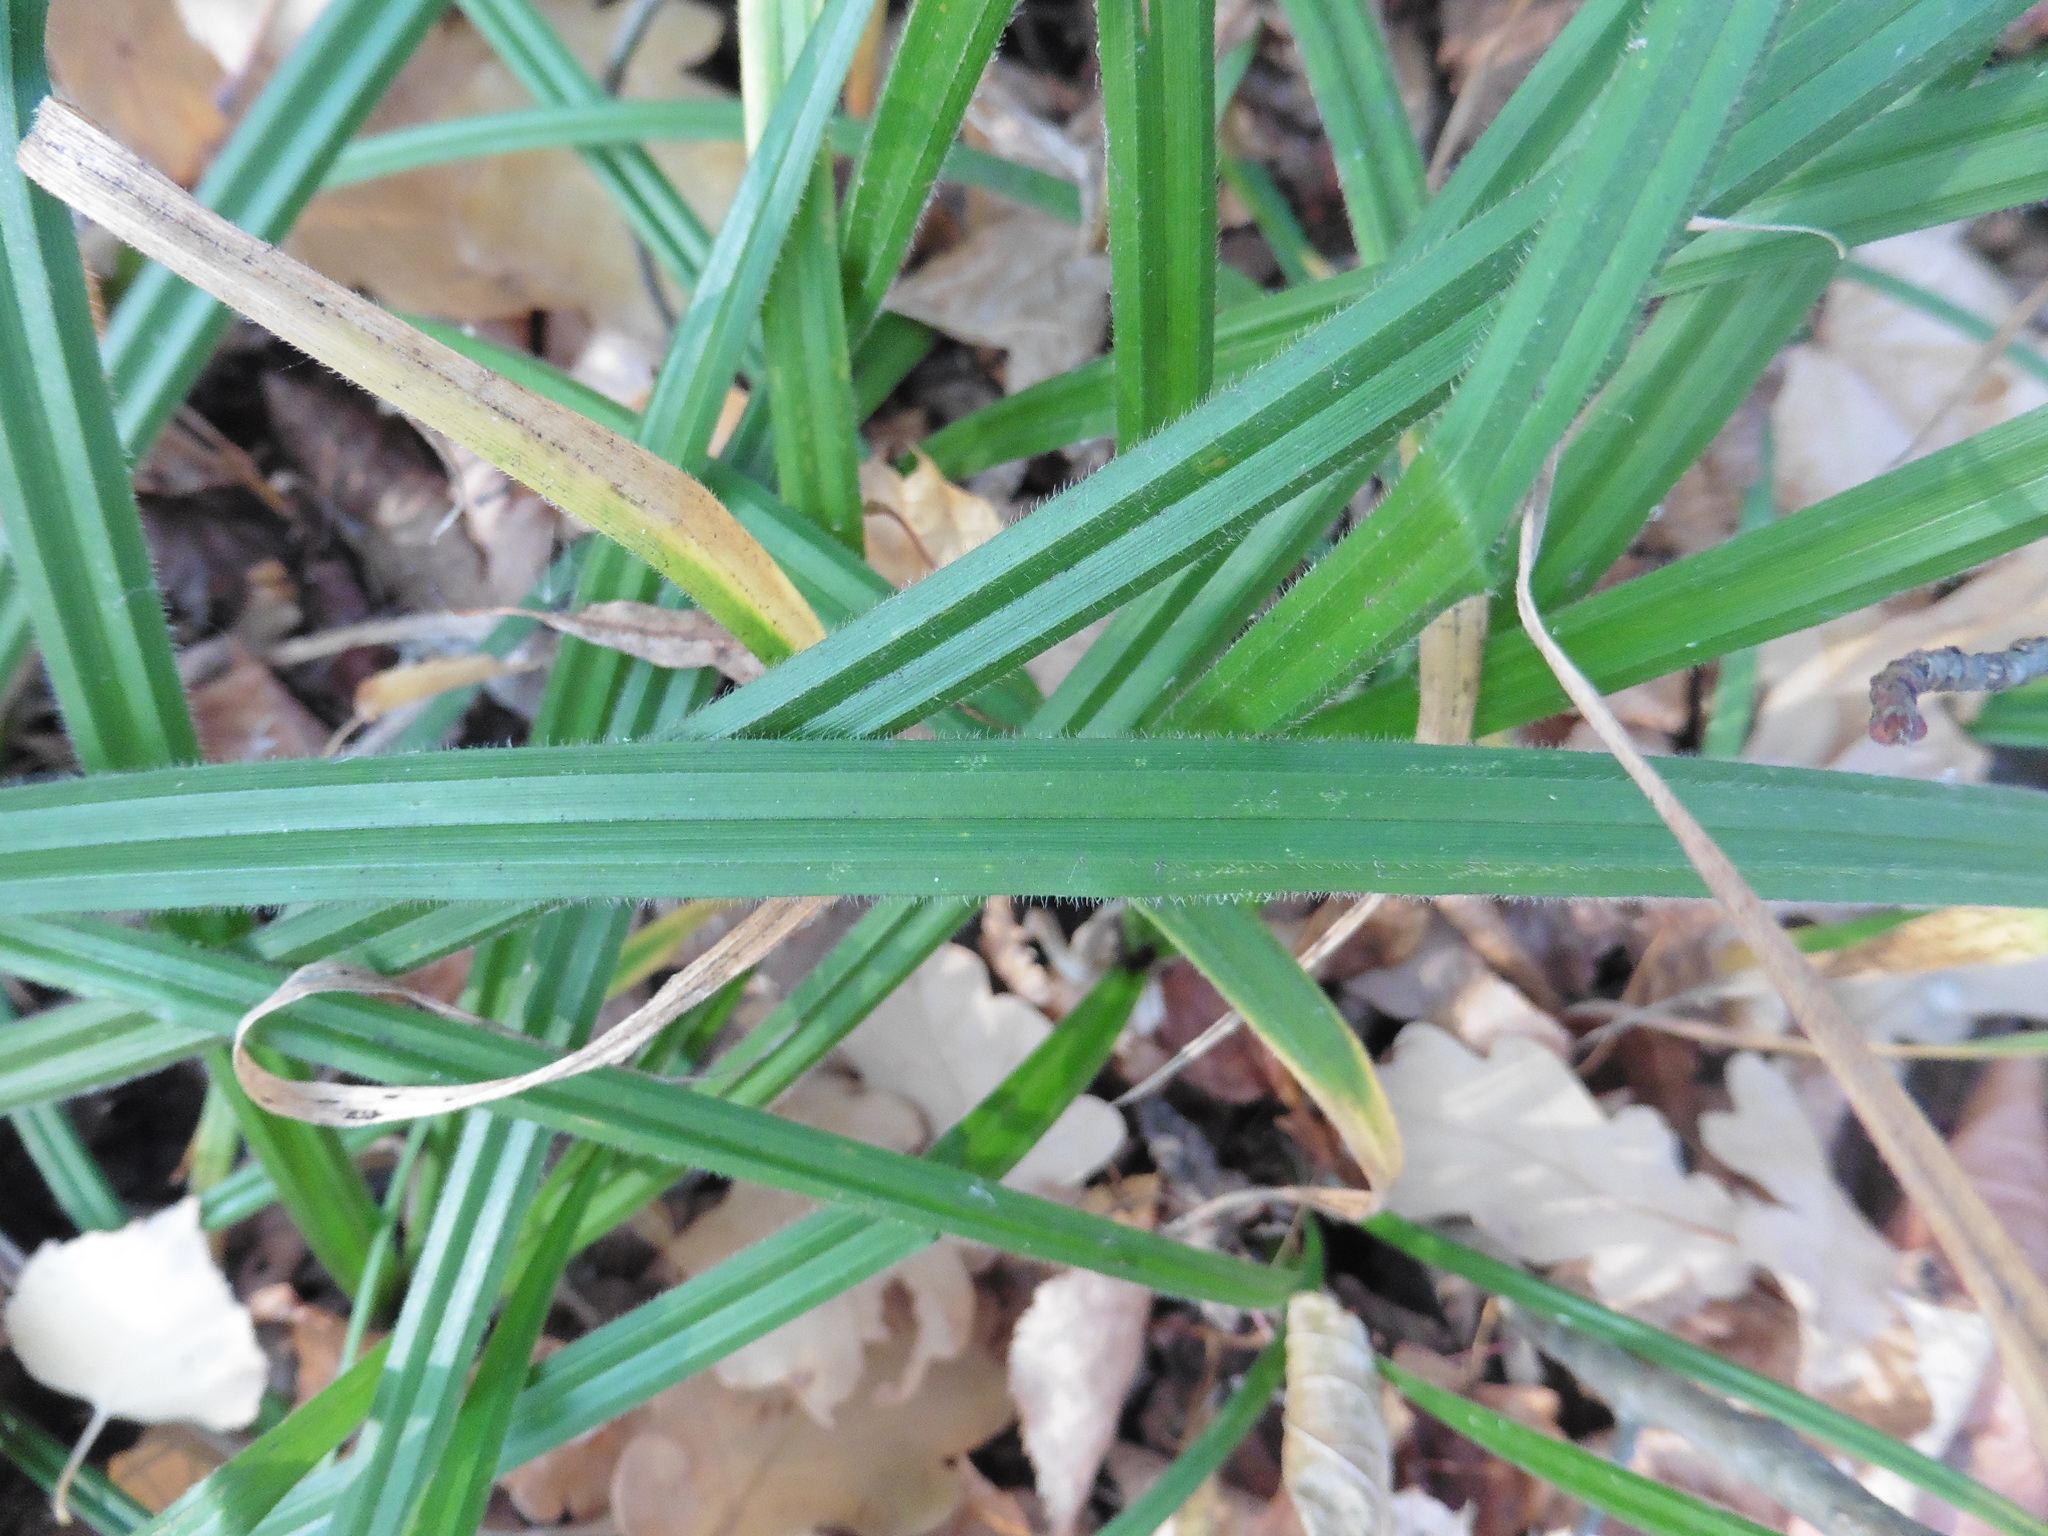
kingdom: Plantae
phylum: Tracheophyta
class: Liliopsida
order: Poales
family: Cyperaceae
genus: Carex
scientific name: Carex pilosa
